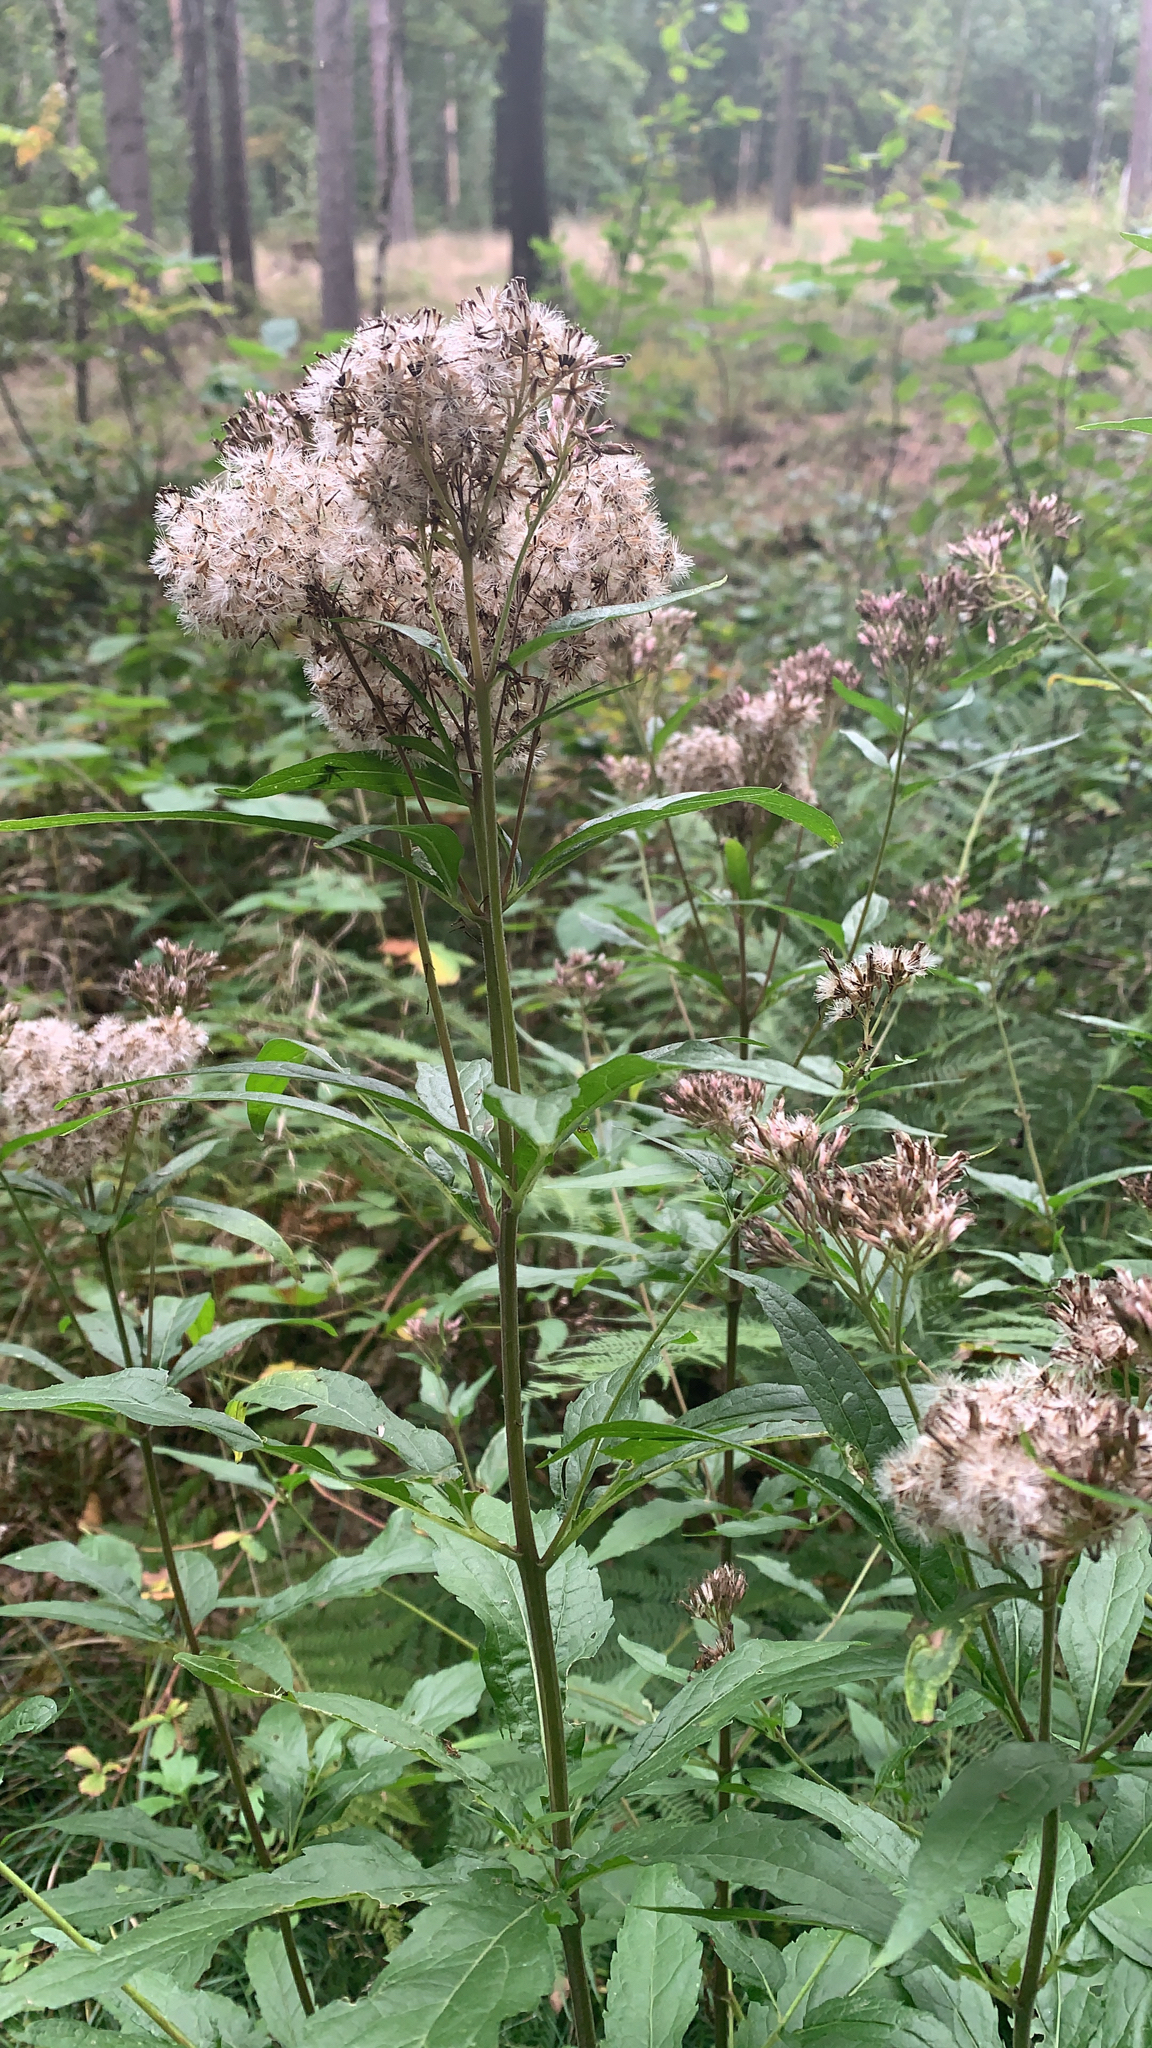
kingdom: Plantae
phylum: Tracheophyta
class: Magnoliopsida
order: Asterales
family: Asteraceae
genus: Eupatorium
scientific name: Eupatorium cannabinum
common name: Hemp-agrimony
